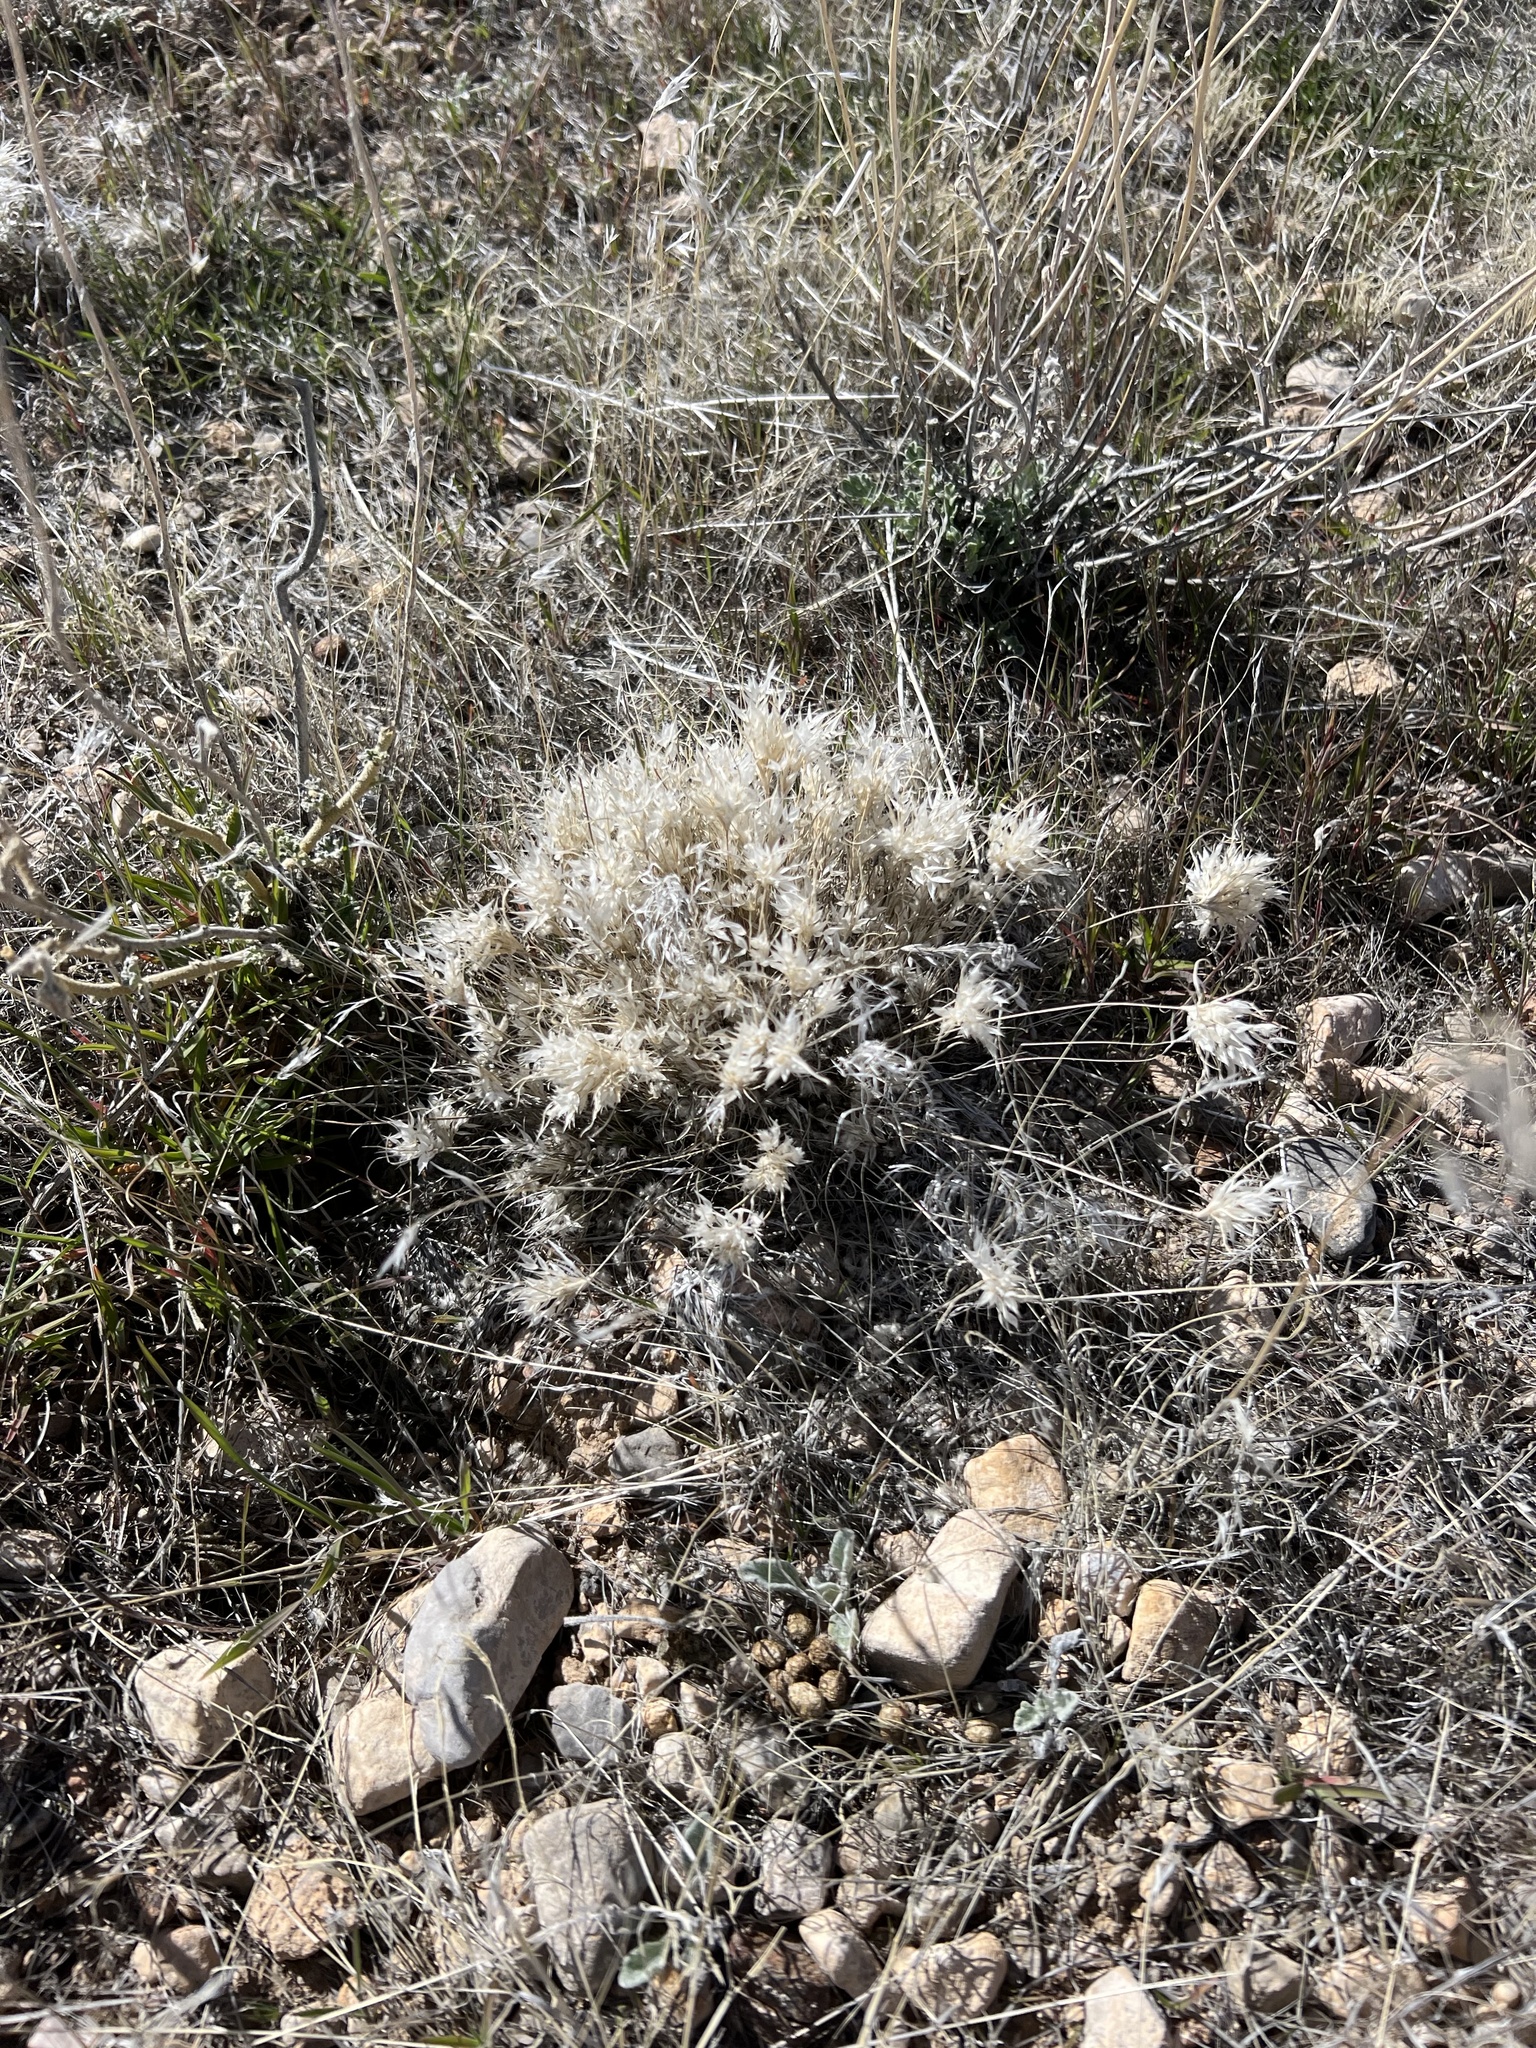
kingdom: Plantae
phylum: Tracheophyta
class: Liliopsida
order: Poales
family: Poaceae
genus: Dasyochloa
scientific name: Dasyochloa pulchella
